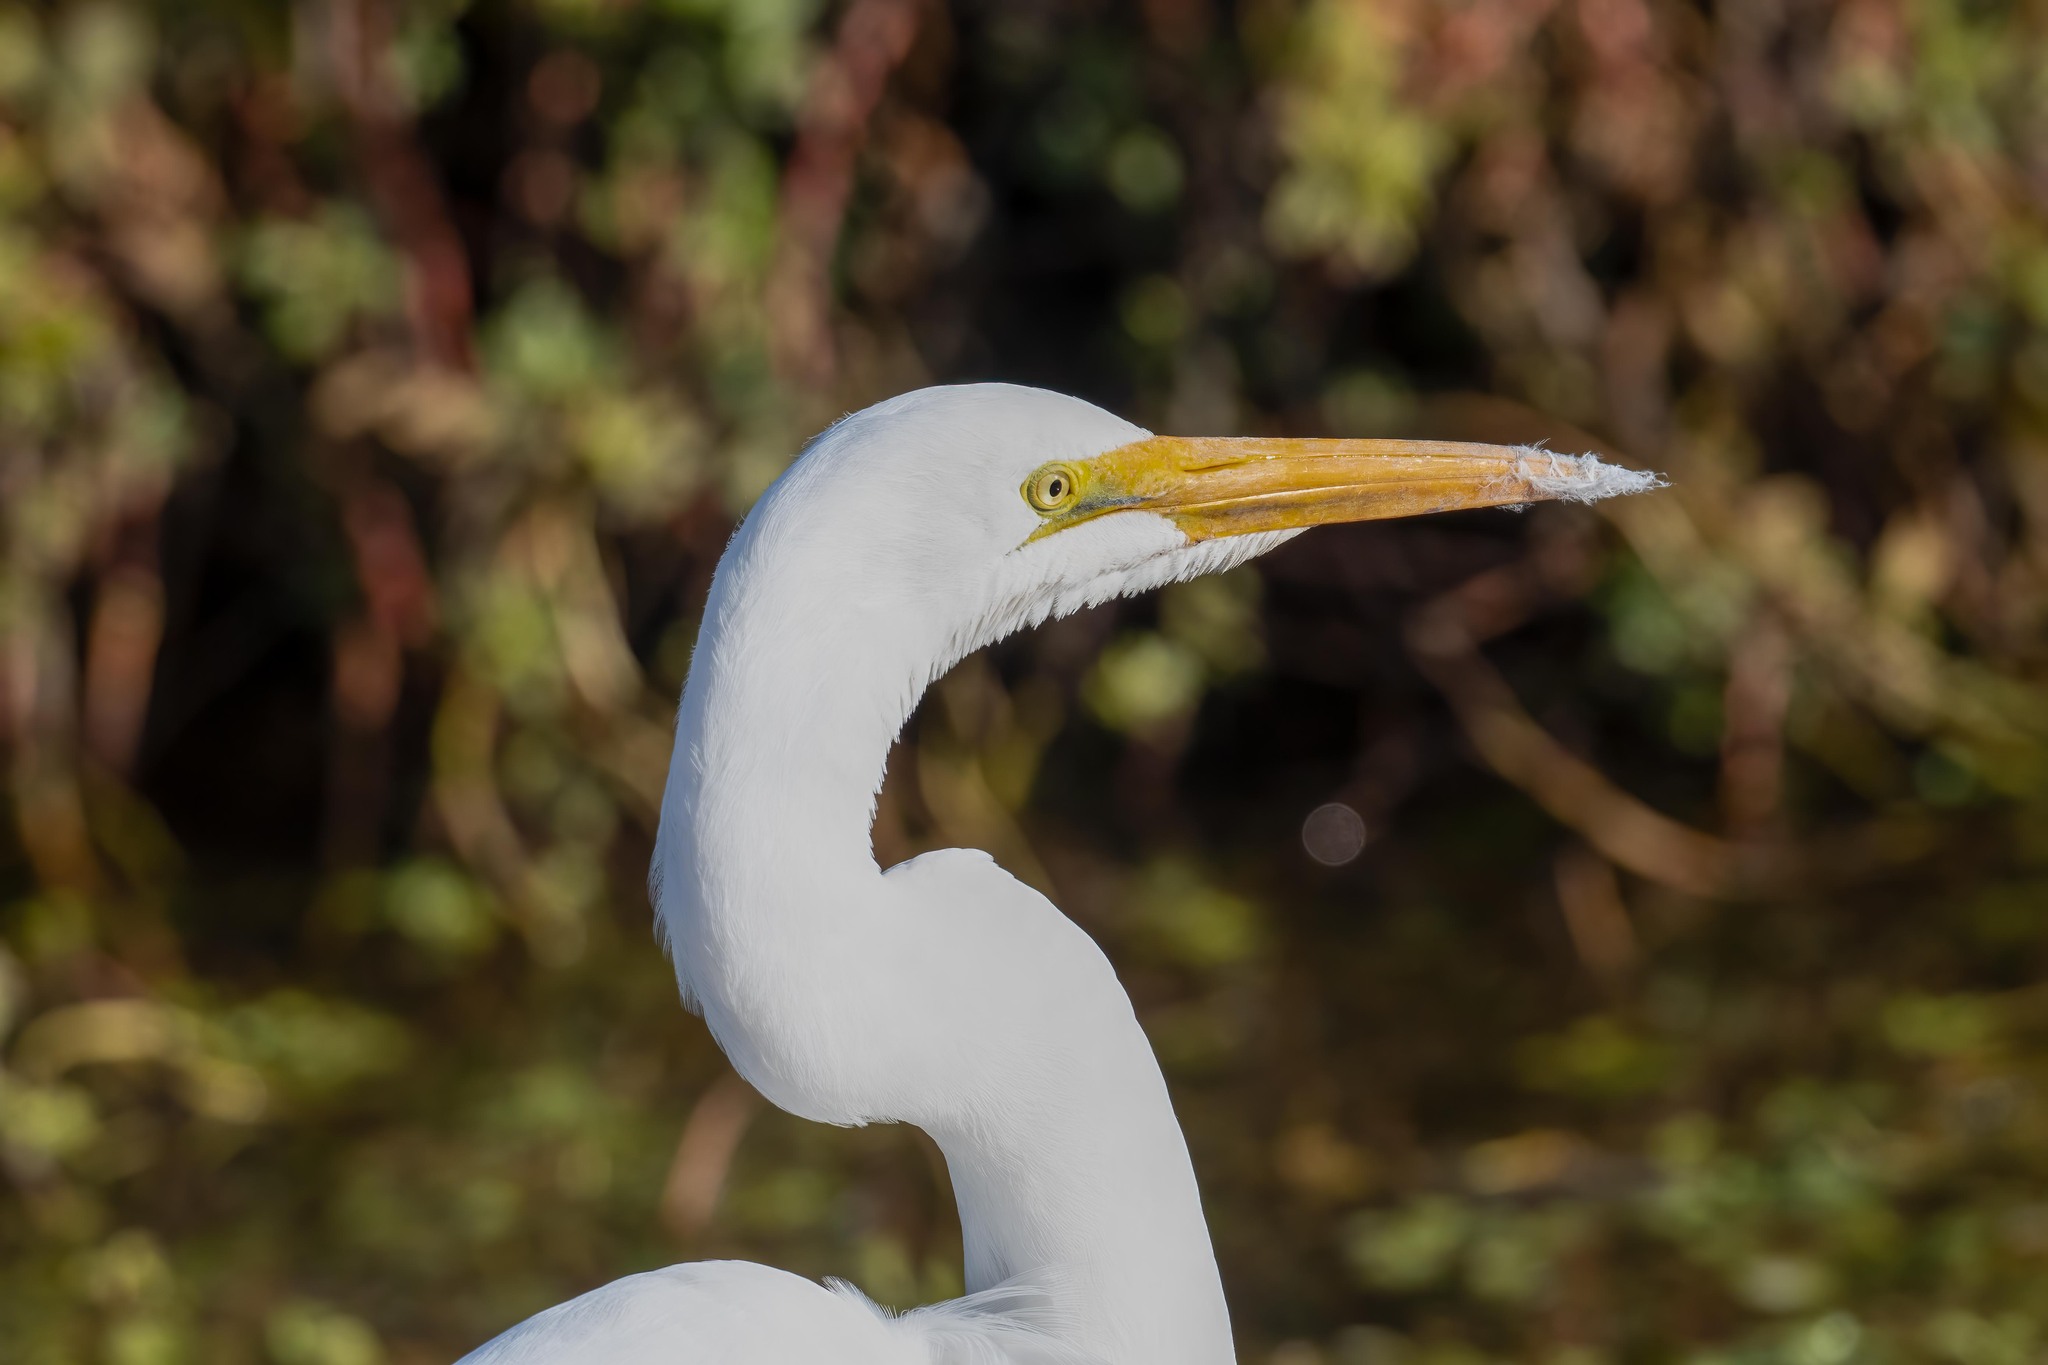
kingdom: Animalia
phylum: Chordata
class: Aves
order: Pelecaniformes
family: Ardeidae
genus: Ardea
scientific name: Ardea alba
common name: Great egret
